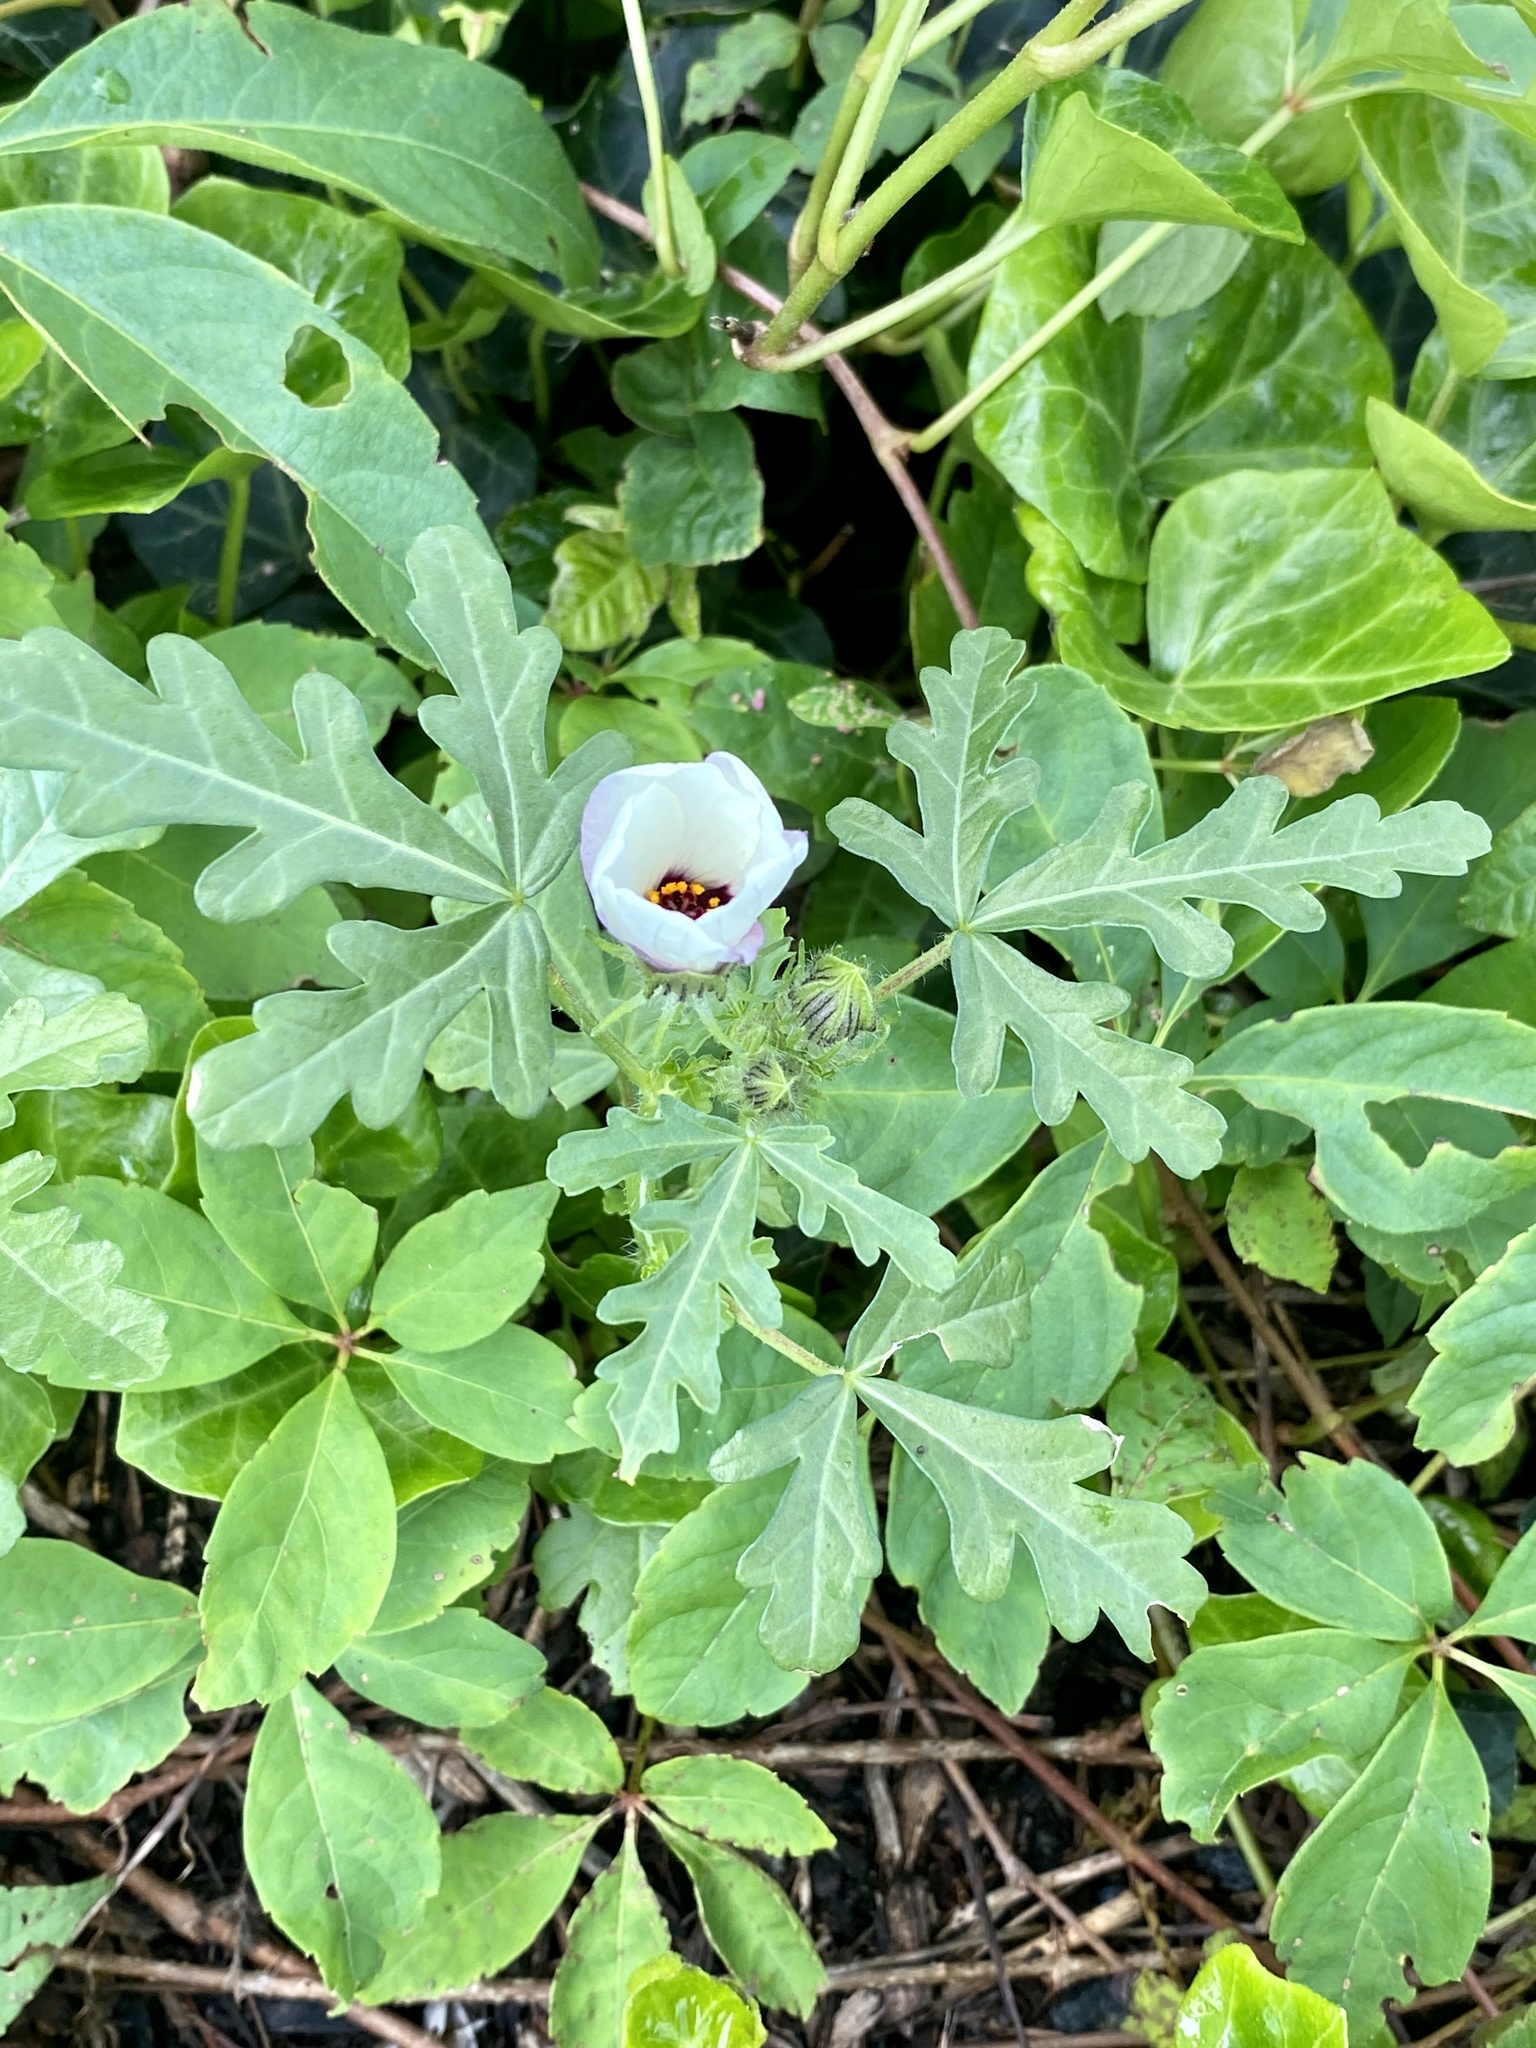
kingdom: Plantae
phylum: Tracheophyta
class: Magnoliopsida
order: Malvales
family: Malvaceae
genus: Hibiscus
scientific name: Hibiscus trionum
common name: Bladder ketmia
